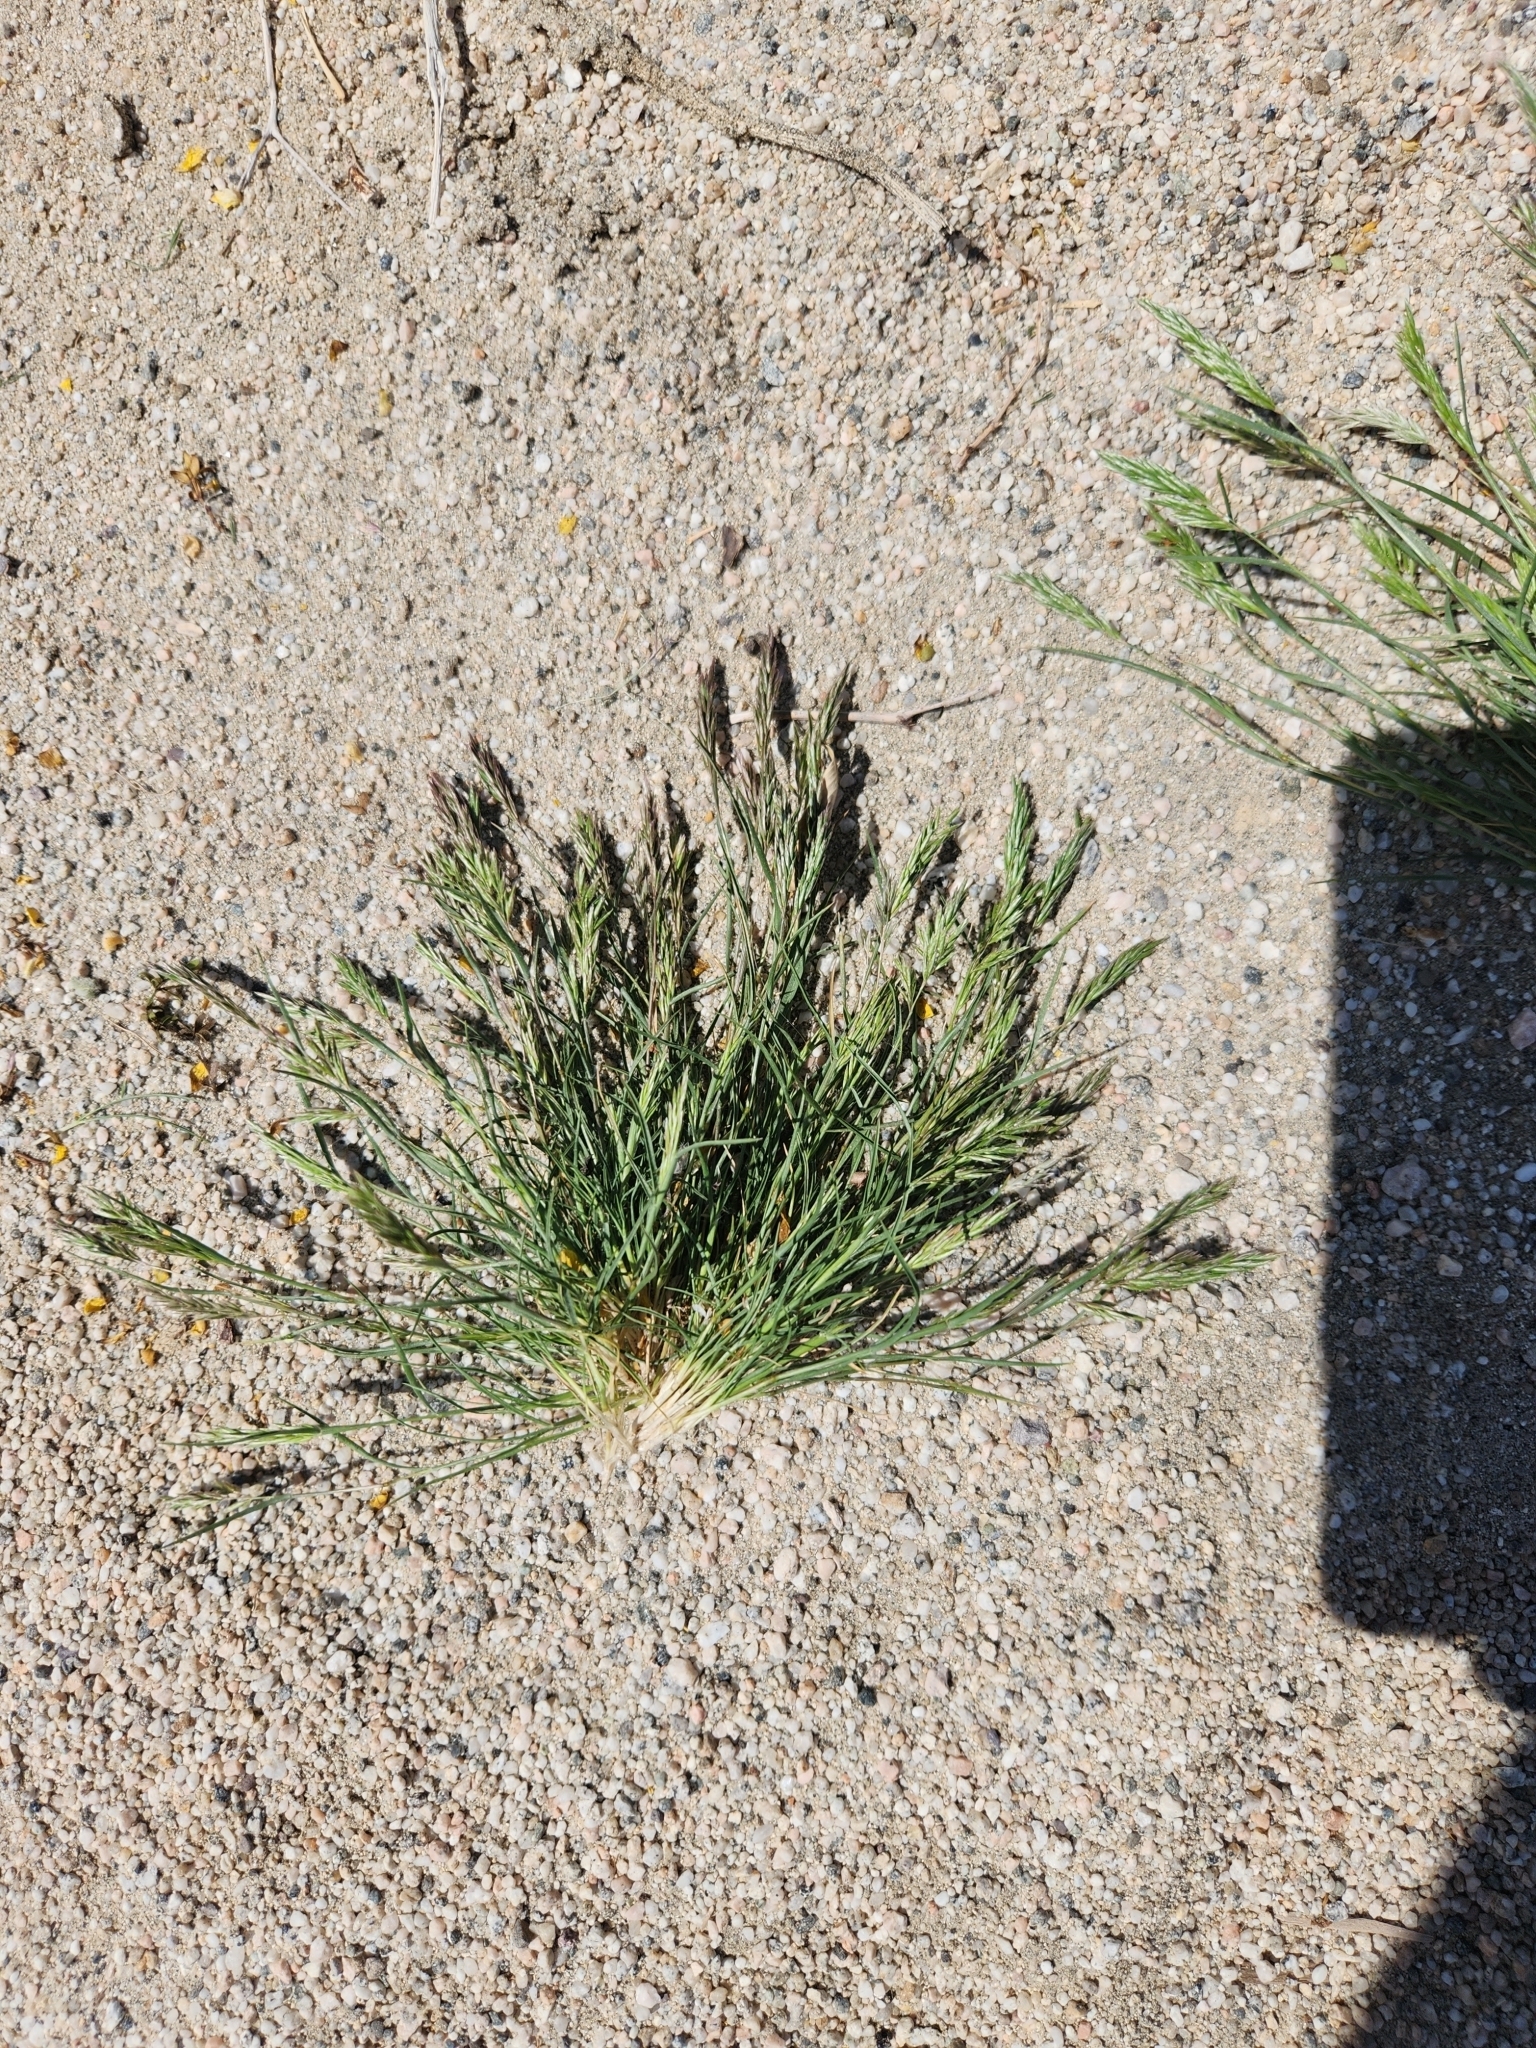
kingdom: Plantae
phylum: Tracheophyta
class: Liliopsida
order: Poales
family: Poaceae
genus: Schismus
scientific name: Schismus barbatus
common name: Kelch-grass
